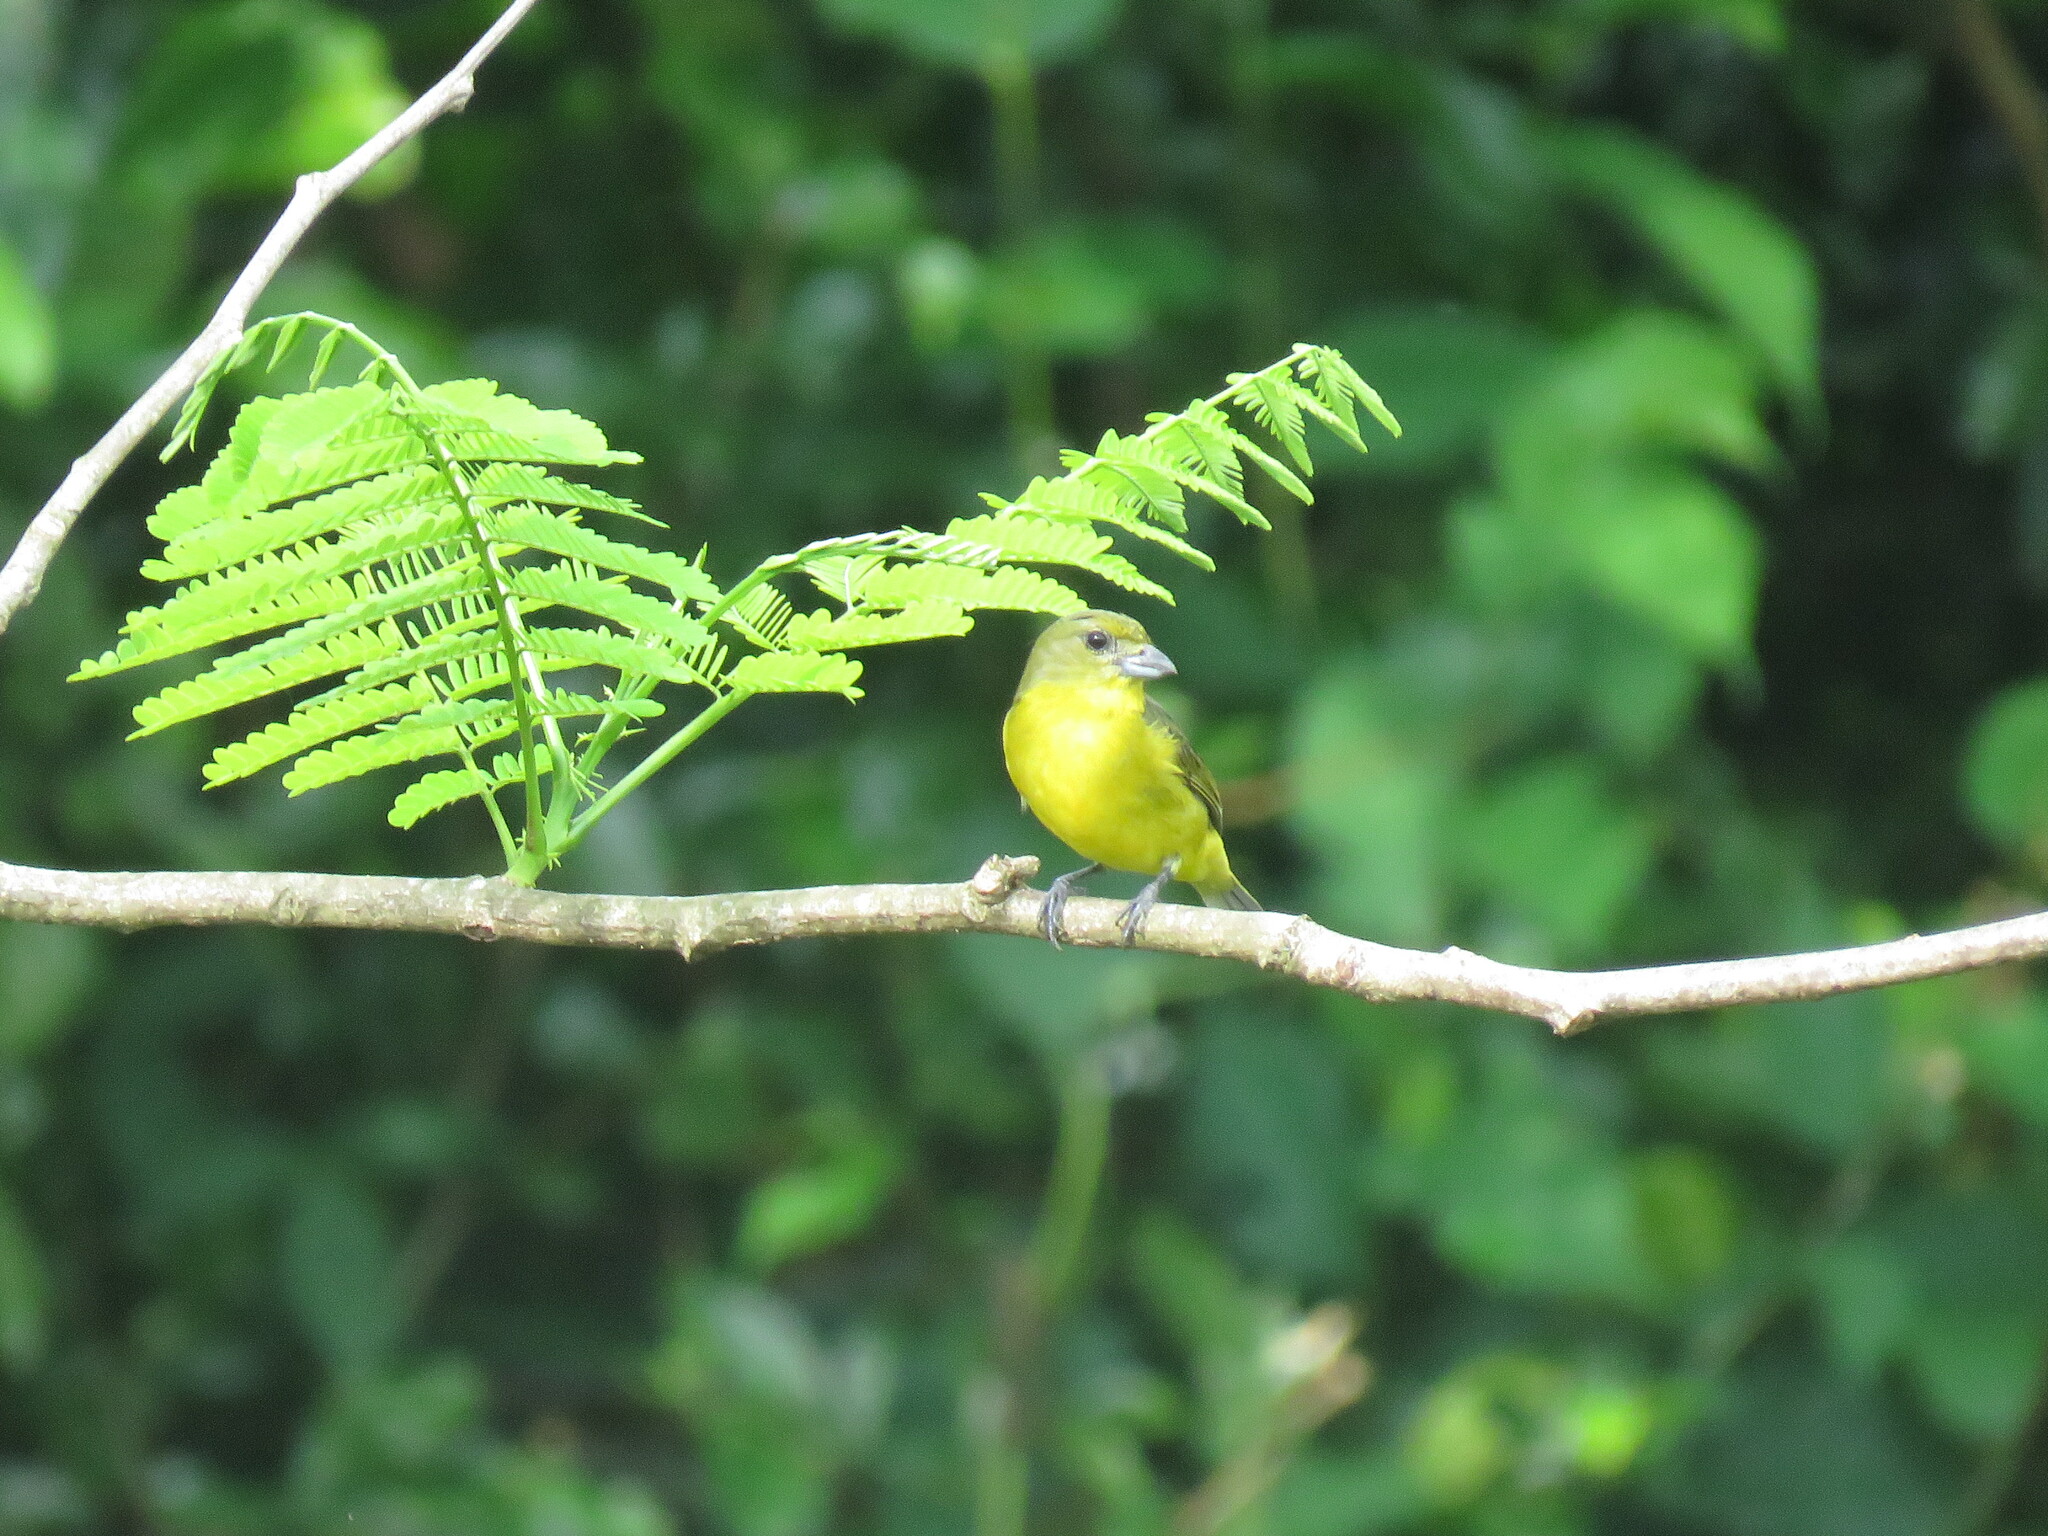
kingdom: Animalia
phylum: Chordata
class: Aves
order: Passeriformes
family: Fringillidae
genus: Euphonia
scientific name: Euphonia laniirostris
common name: Thick-billed euphonia
